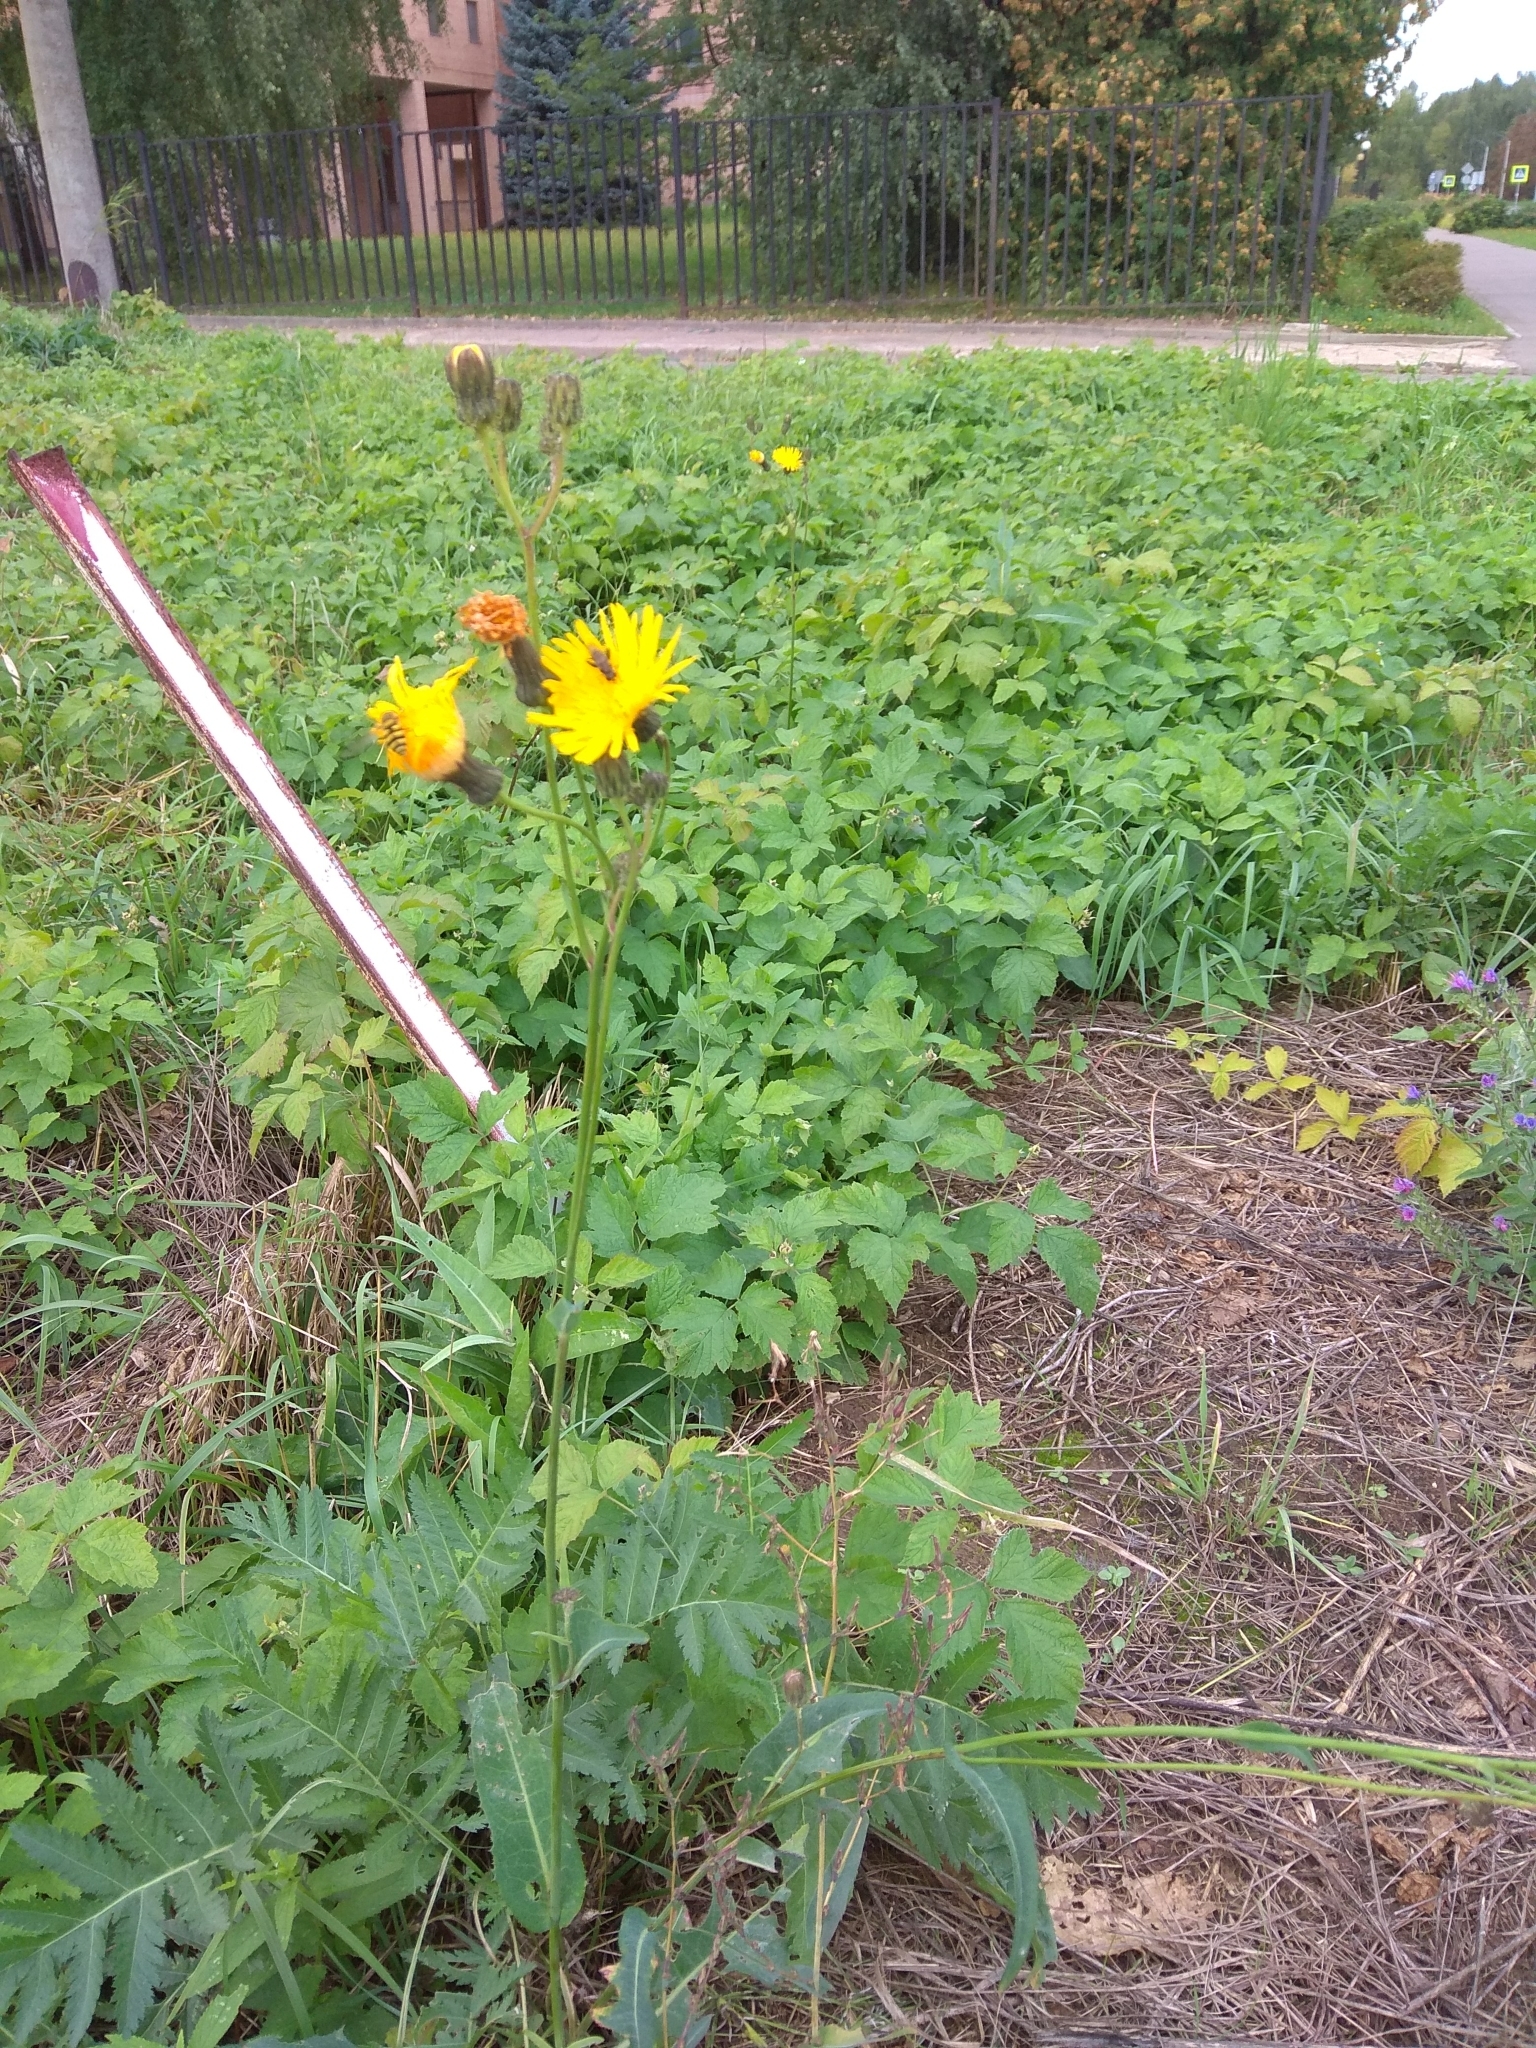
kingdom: Plantae
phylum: Tracheophyta
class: Magnoliopsida
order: Asterales
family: Asteraceae
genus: Sonchus
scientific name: Sonchus arvensis
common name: Perennial sow-thistle
